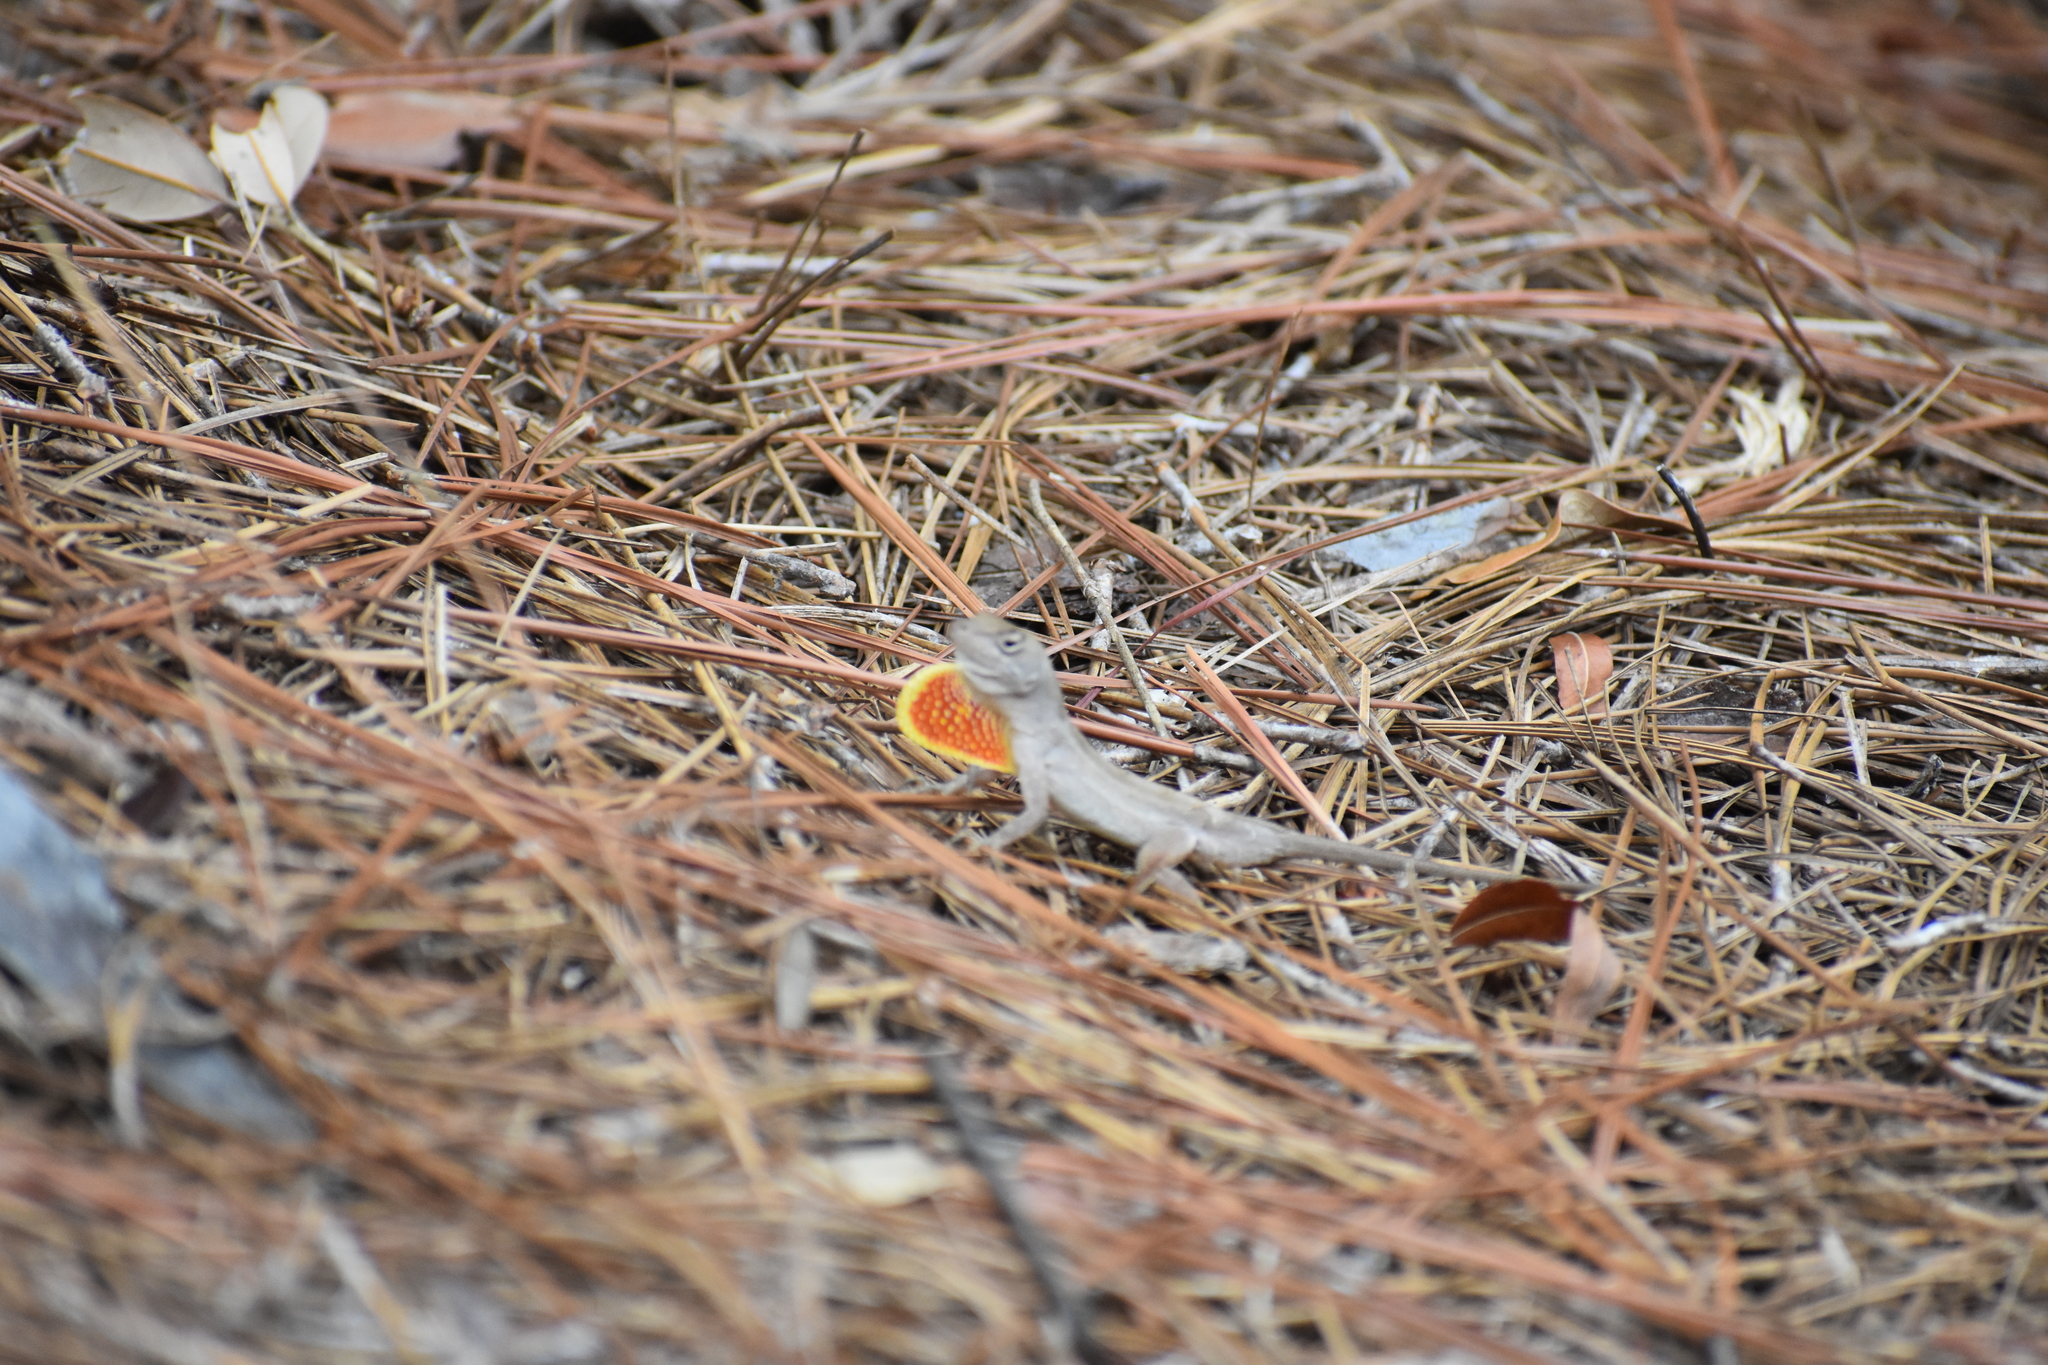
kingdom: Animalia
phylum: Chordata
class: Squamata
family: Dactyloidae
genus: Anolis
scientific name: Anolis sagrei
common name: Brown anole
